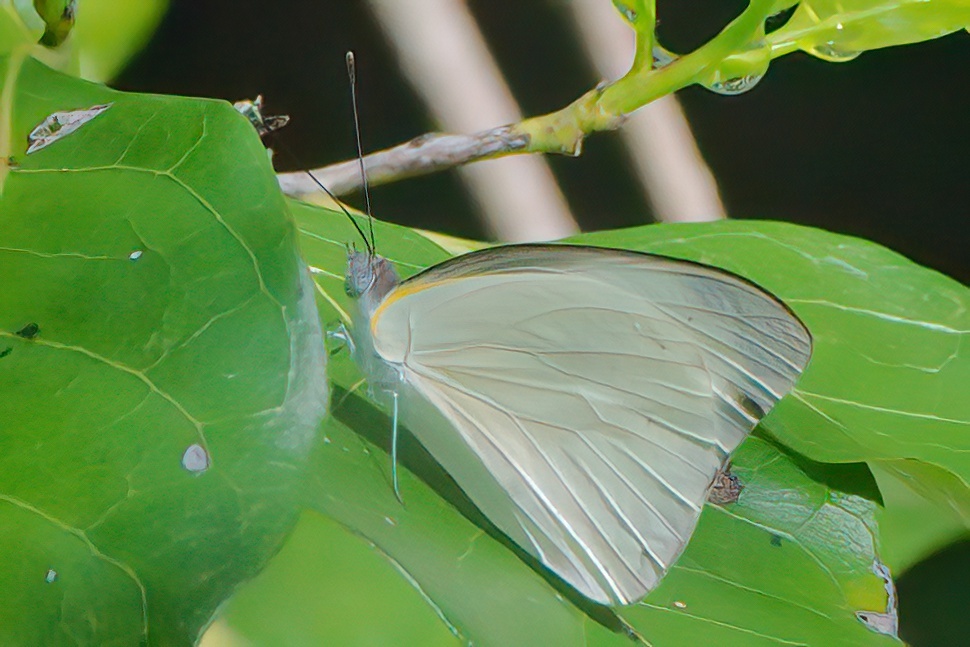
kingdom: Animalia
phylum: Arthropoda
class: Insecta
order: Lepidoptera
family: Pieridae
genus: Glutophrissa
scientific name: Glutophrissa drusilla
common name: Florida white
